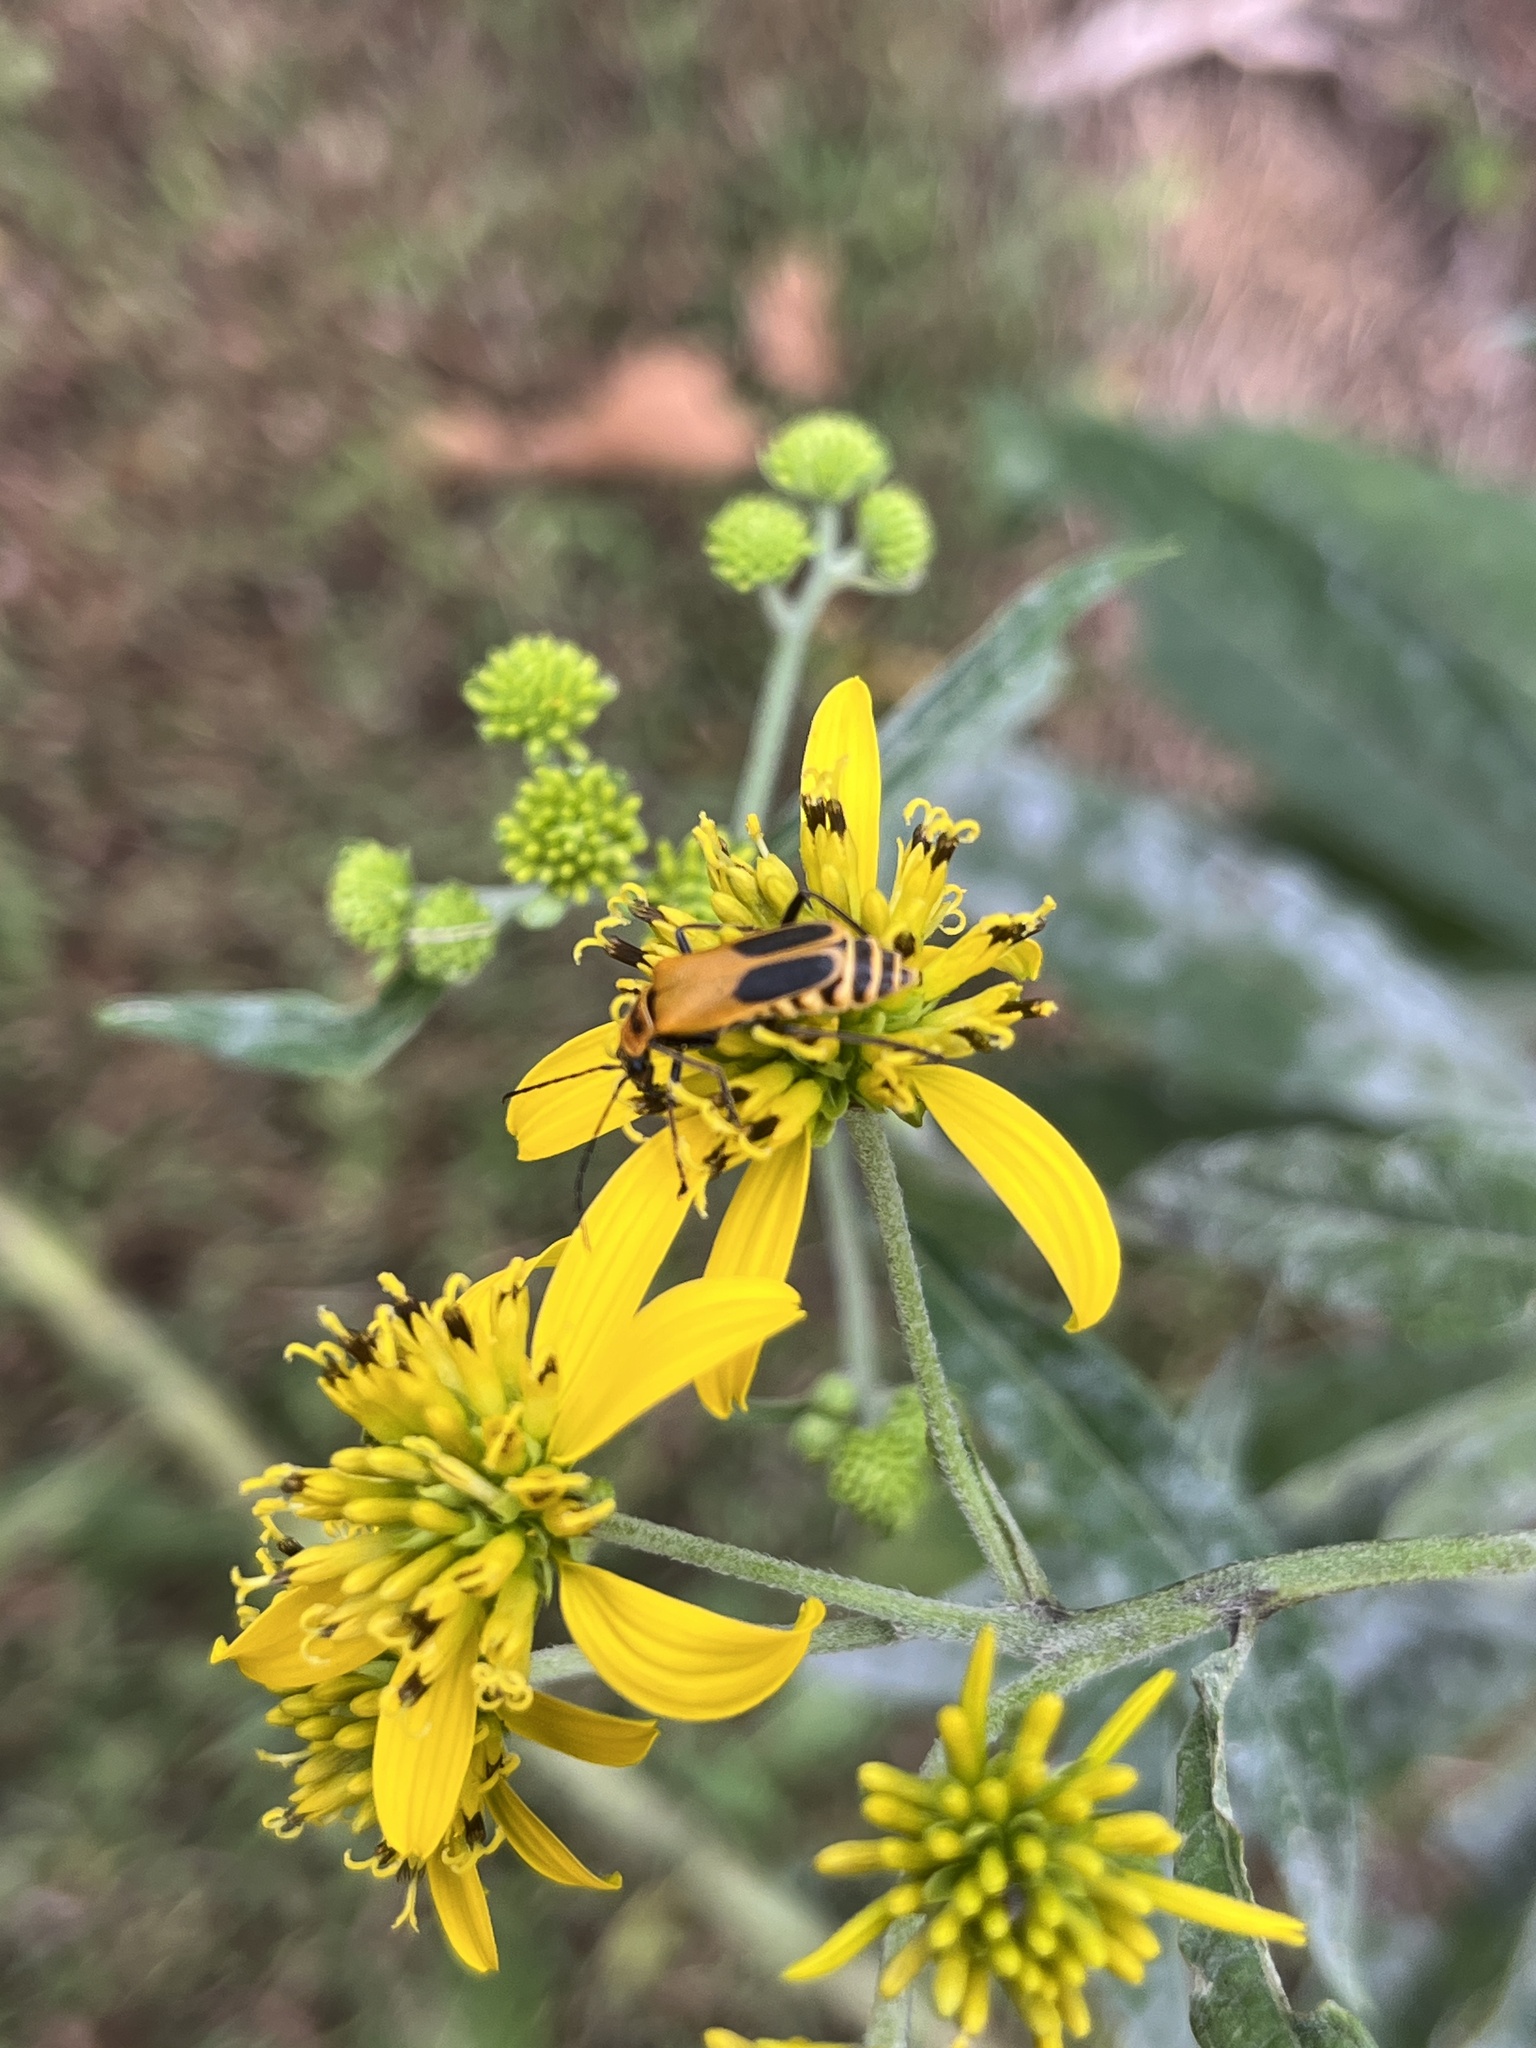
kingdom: Animalia
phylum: Arthropoda
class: Insecta
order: Coleoptera
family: Cantharidae
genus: Chauliognathus
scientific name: Chauliognathus pensylvanicus
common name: Goldenrod soldier beetle
